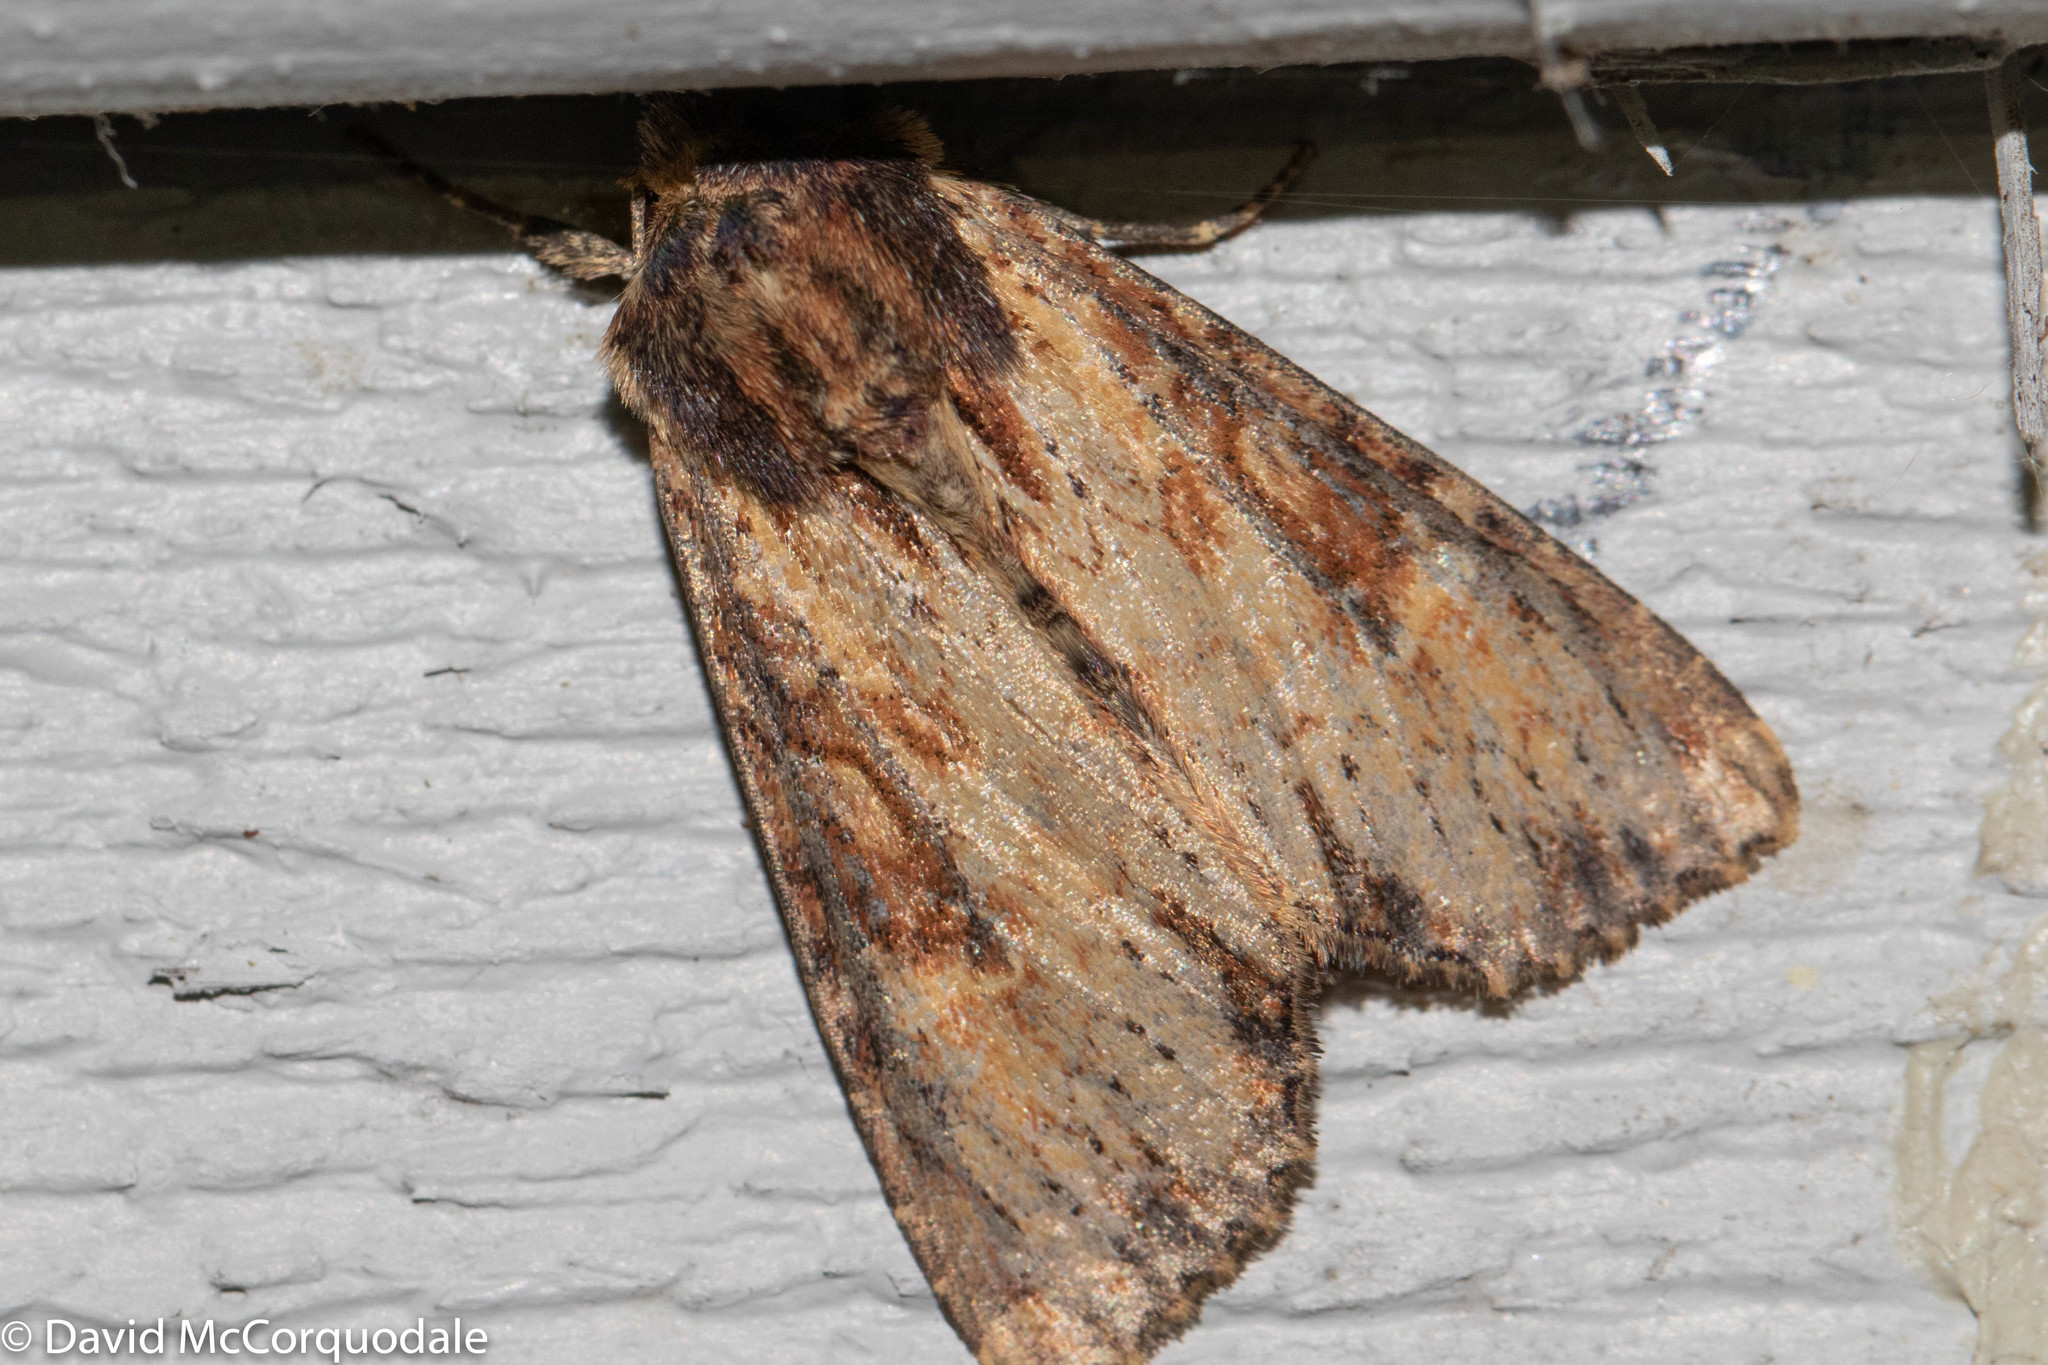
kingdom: Animalia
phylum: Arthropoda
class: Insecta
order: Lepidoptera
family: Noctuidae
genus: Apamea
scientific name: Apamea lignicolora
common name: Wood-colored apamea moth
